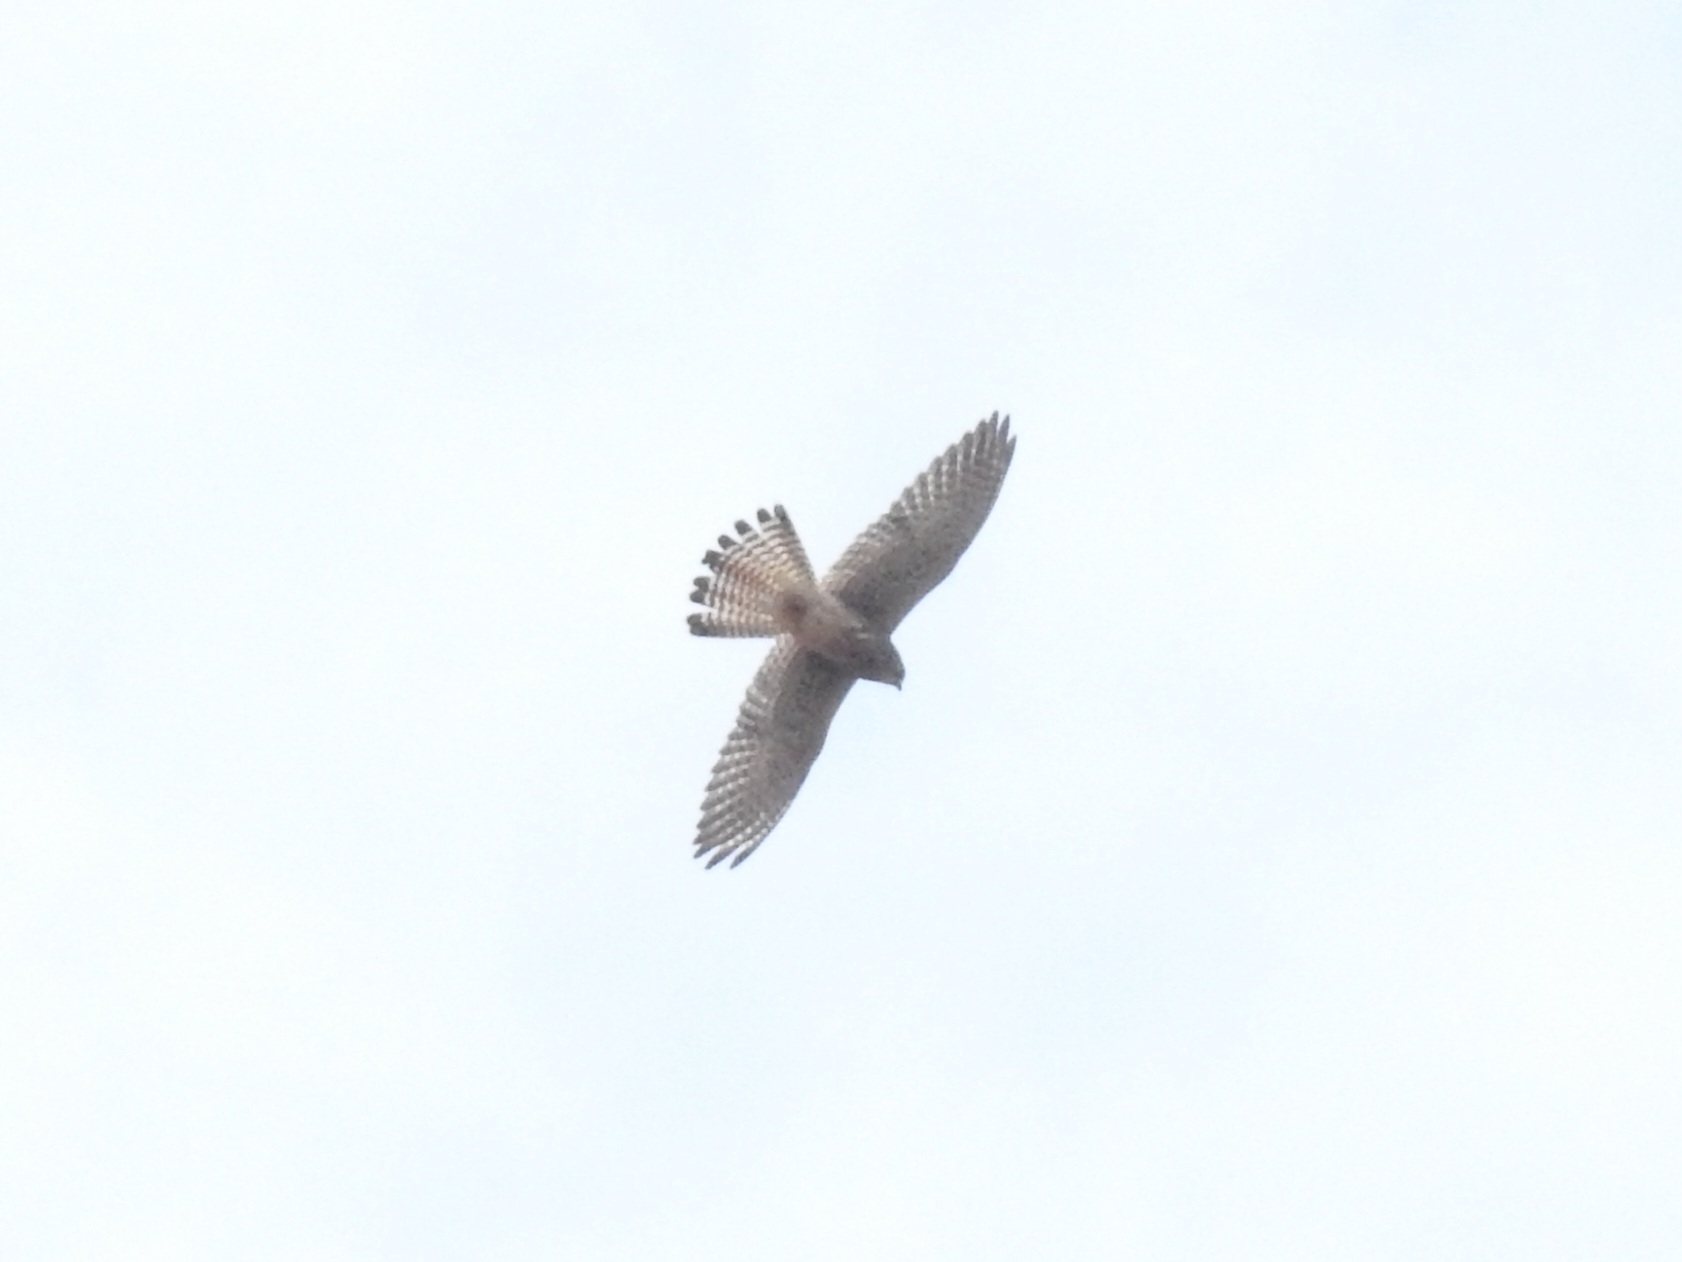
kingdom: Animalia
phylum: Chordata
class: Aves
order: Falconiformes
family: Falconidae
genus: Falco
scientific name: Falco tinnunculus
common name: Common kestrel
